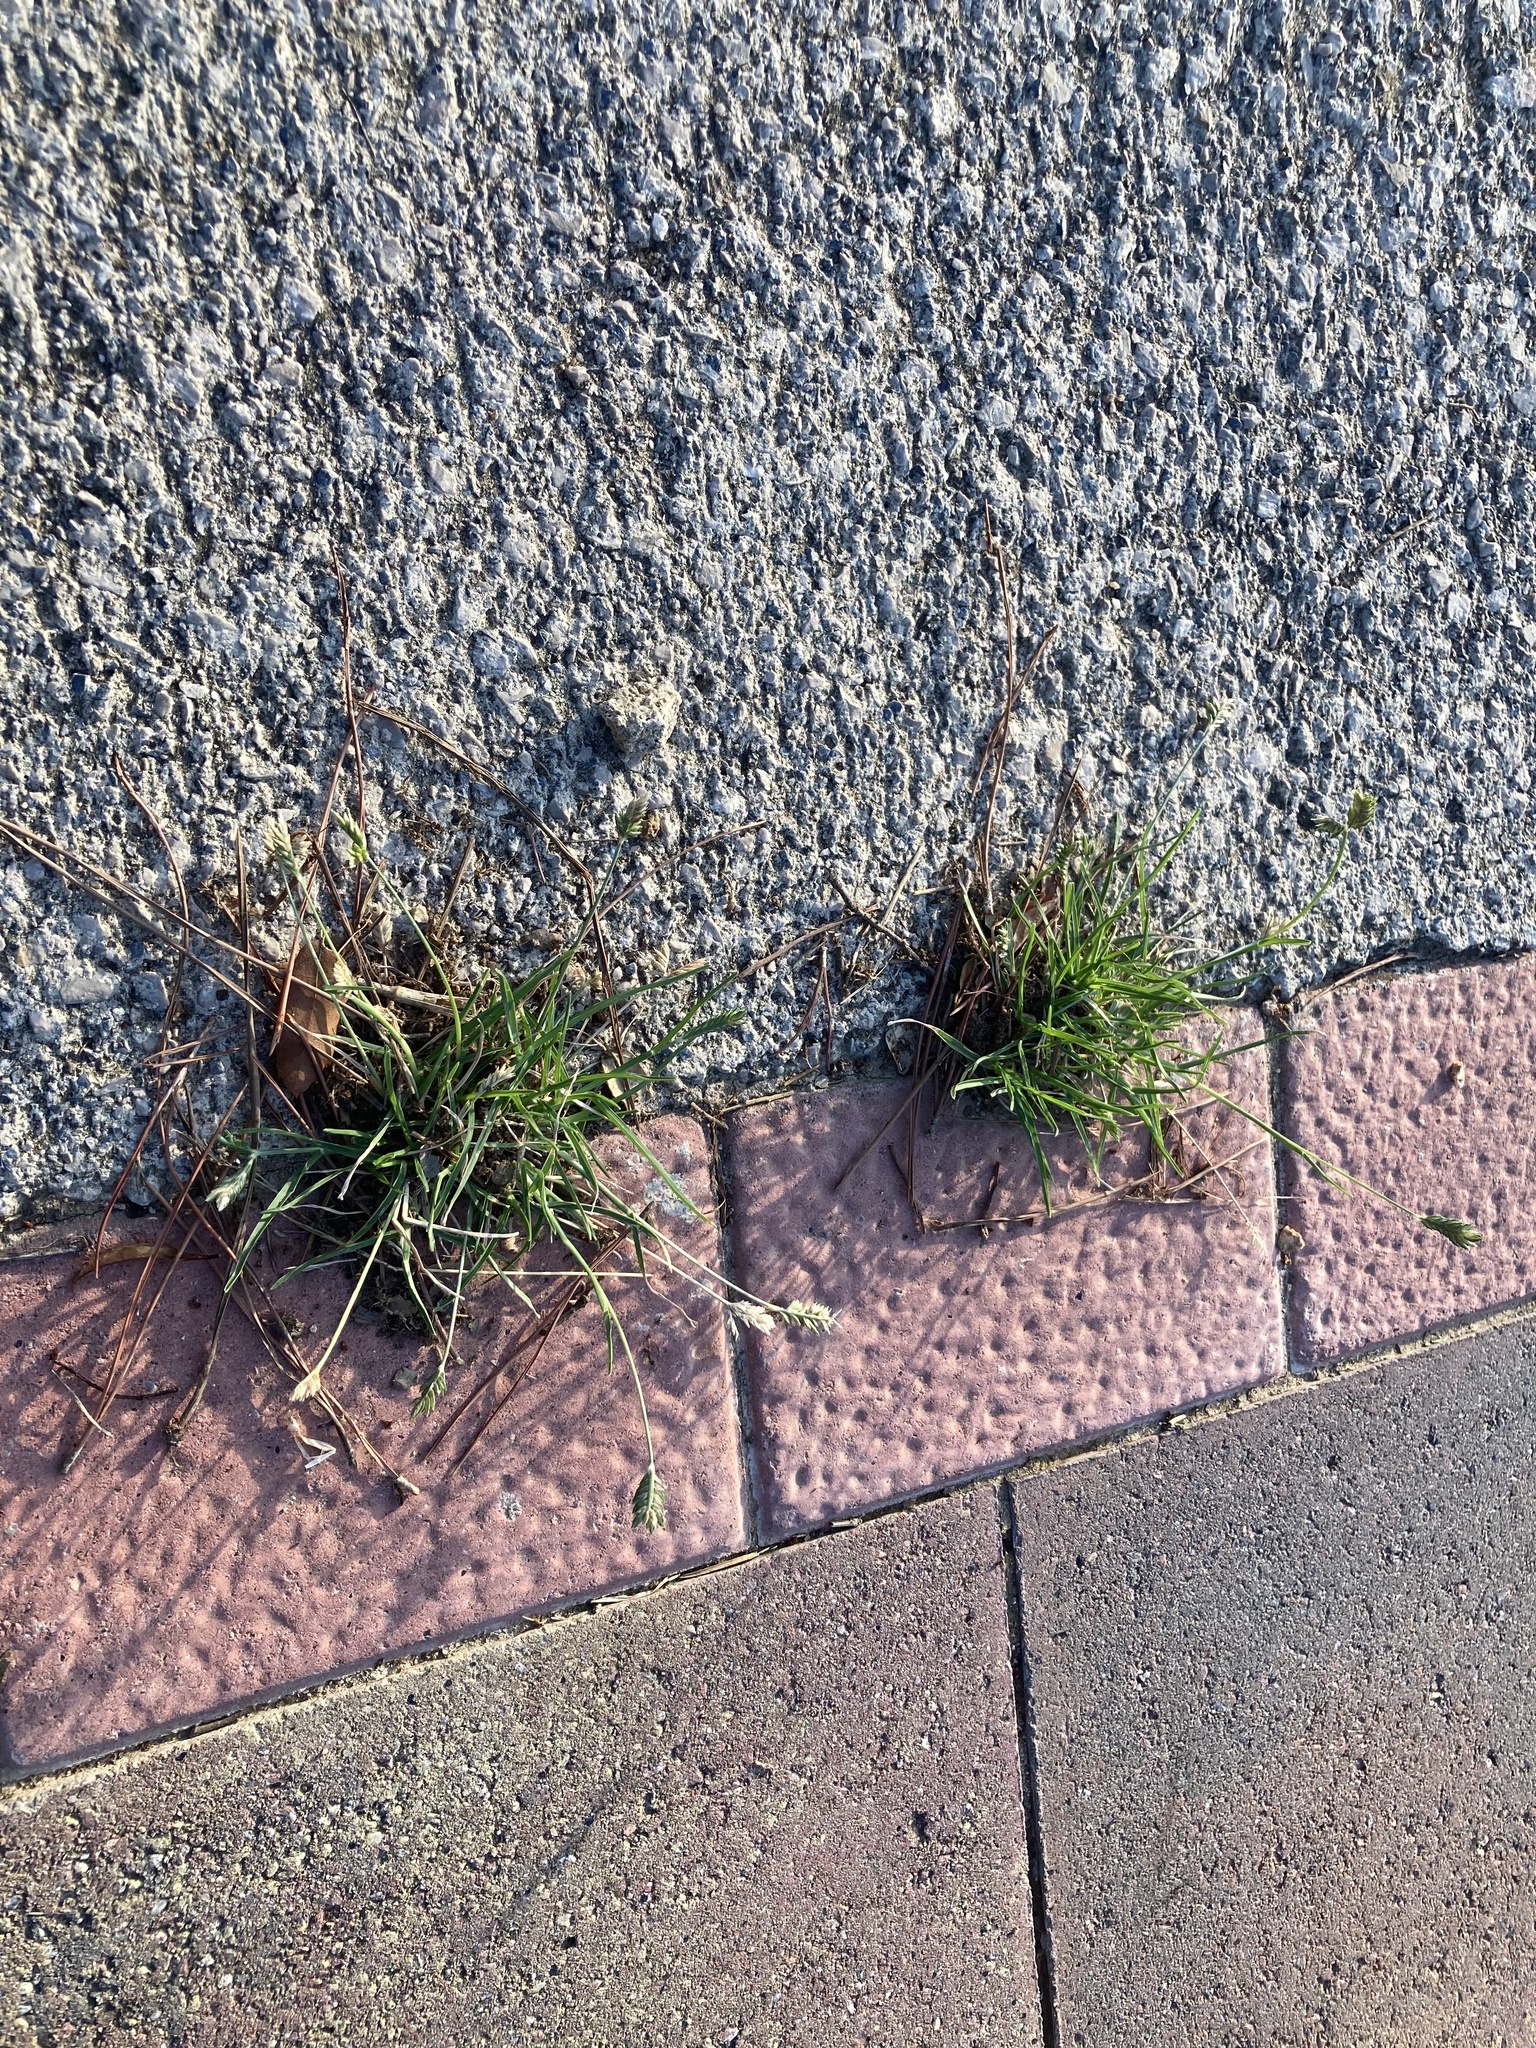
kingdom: Plantae
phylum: Tracheophyta
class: Liliopsida
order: Poales
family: Poaceae
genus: Eleusine
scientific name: Eleusine tristachya
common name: American yard-grass
